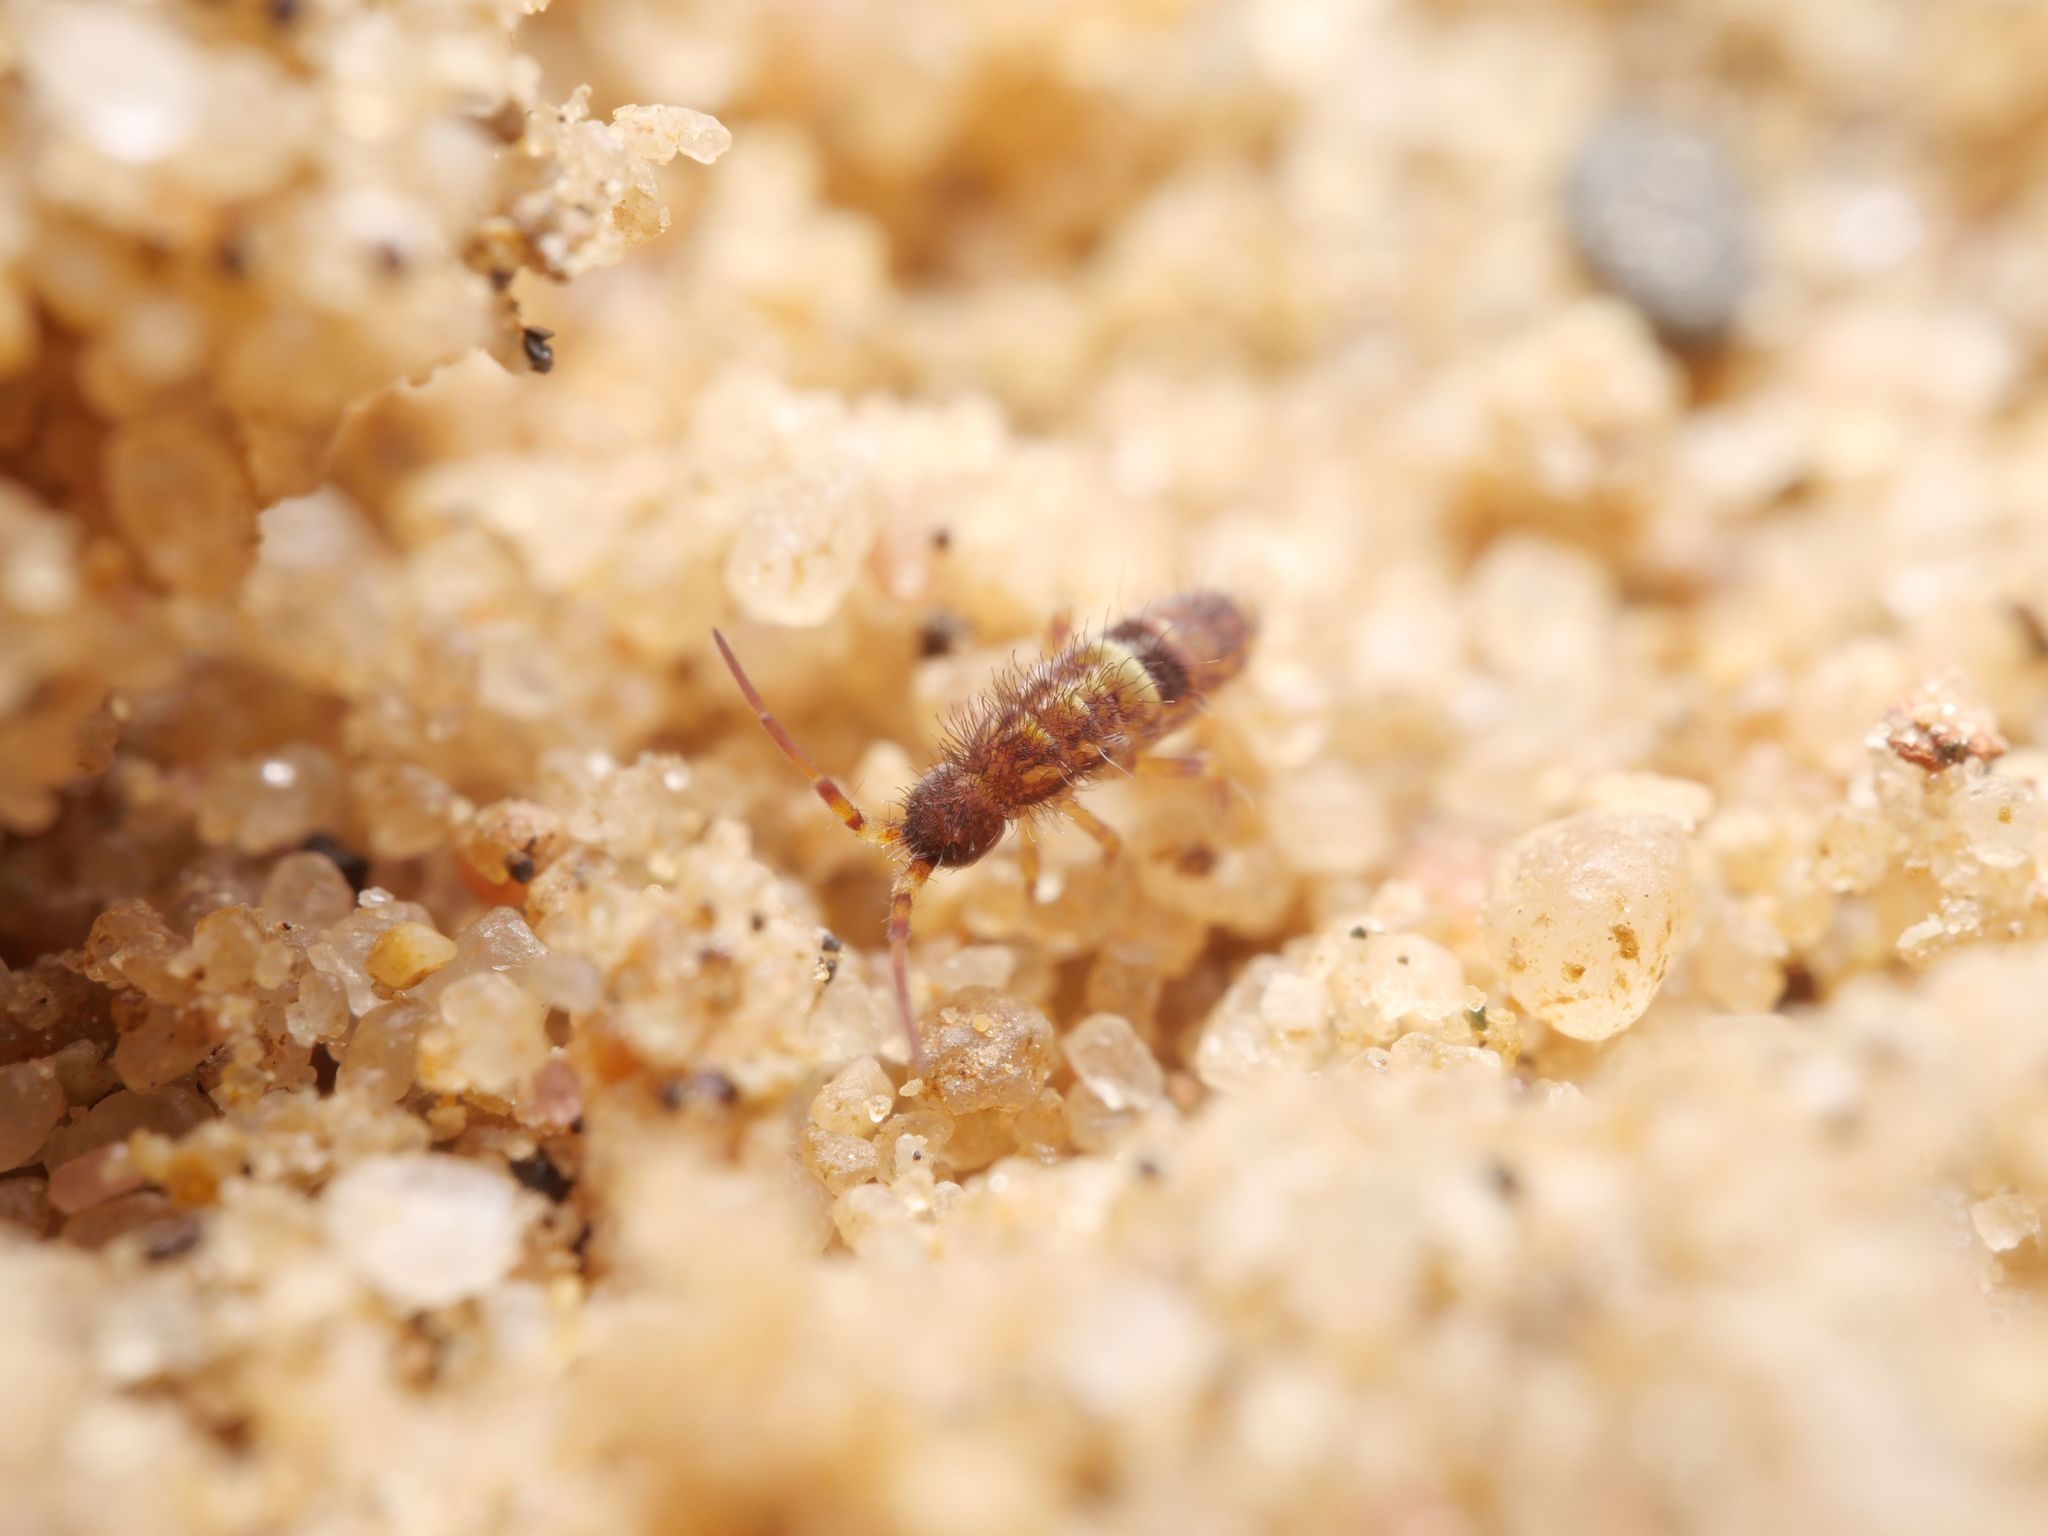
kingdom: Animalia
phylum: Arthropoda
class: Collembola
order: Entomobryomorpha
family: Orchesellidae
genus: Orchesella
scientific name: Orchesella cincta
